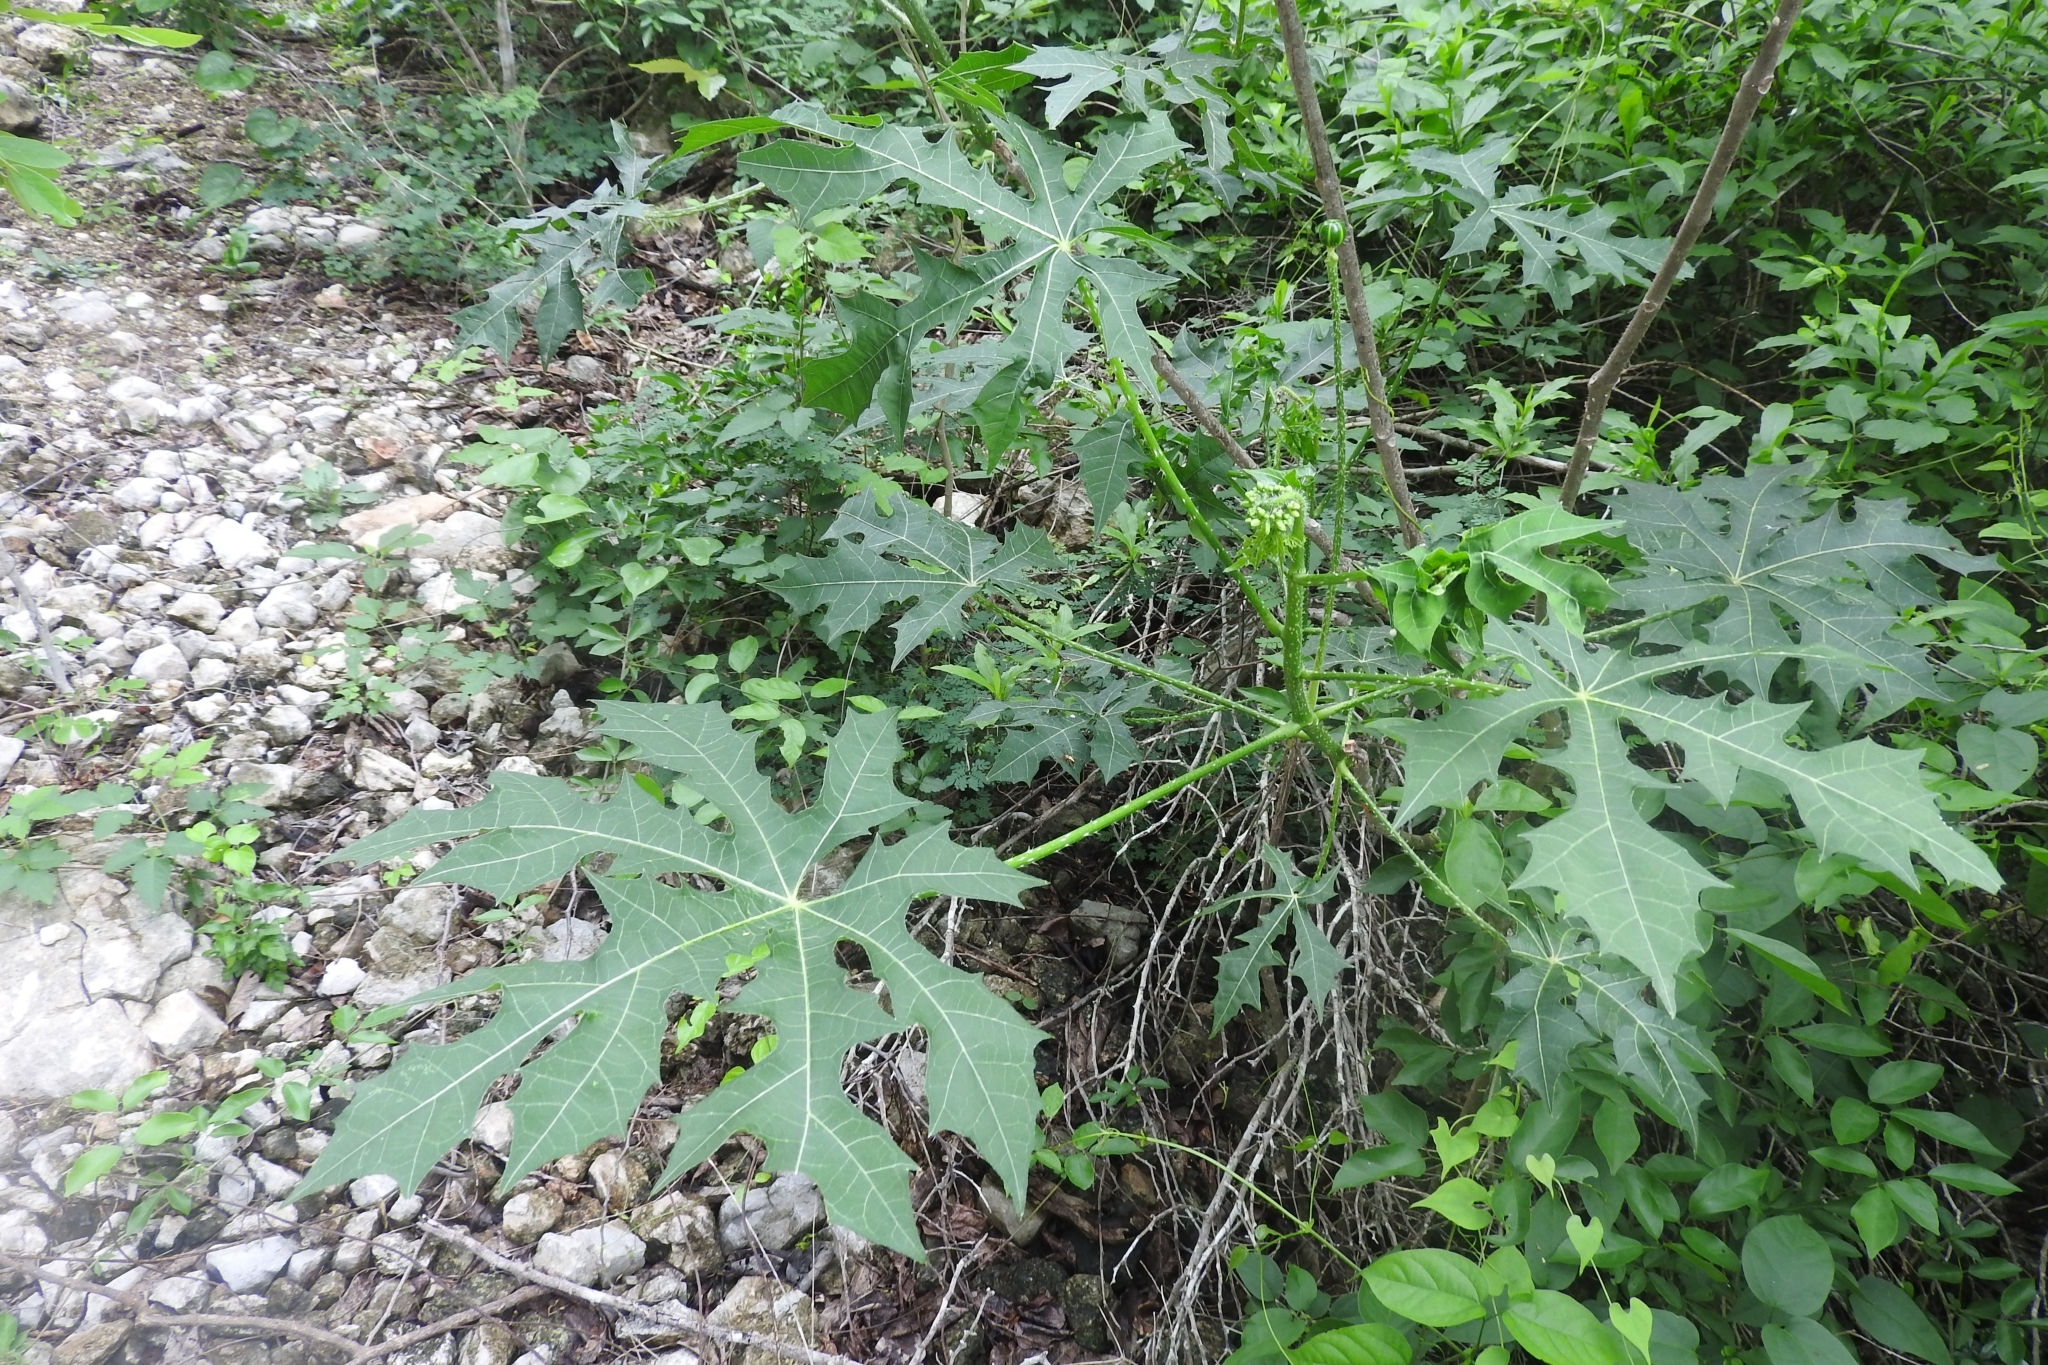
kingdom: Plantae
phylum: Tracheophyta
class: Magnoliopsida
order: Malpighiales
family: Euphorbiaceae
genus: Cnidoscolus
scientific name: Cnidoscolus aconitifolius
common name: Cabbage-star
